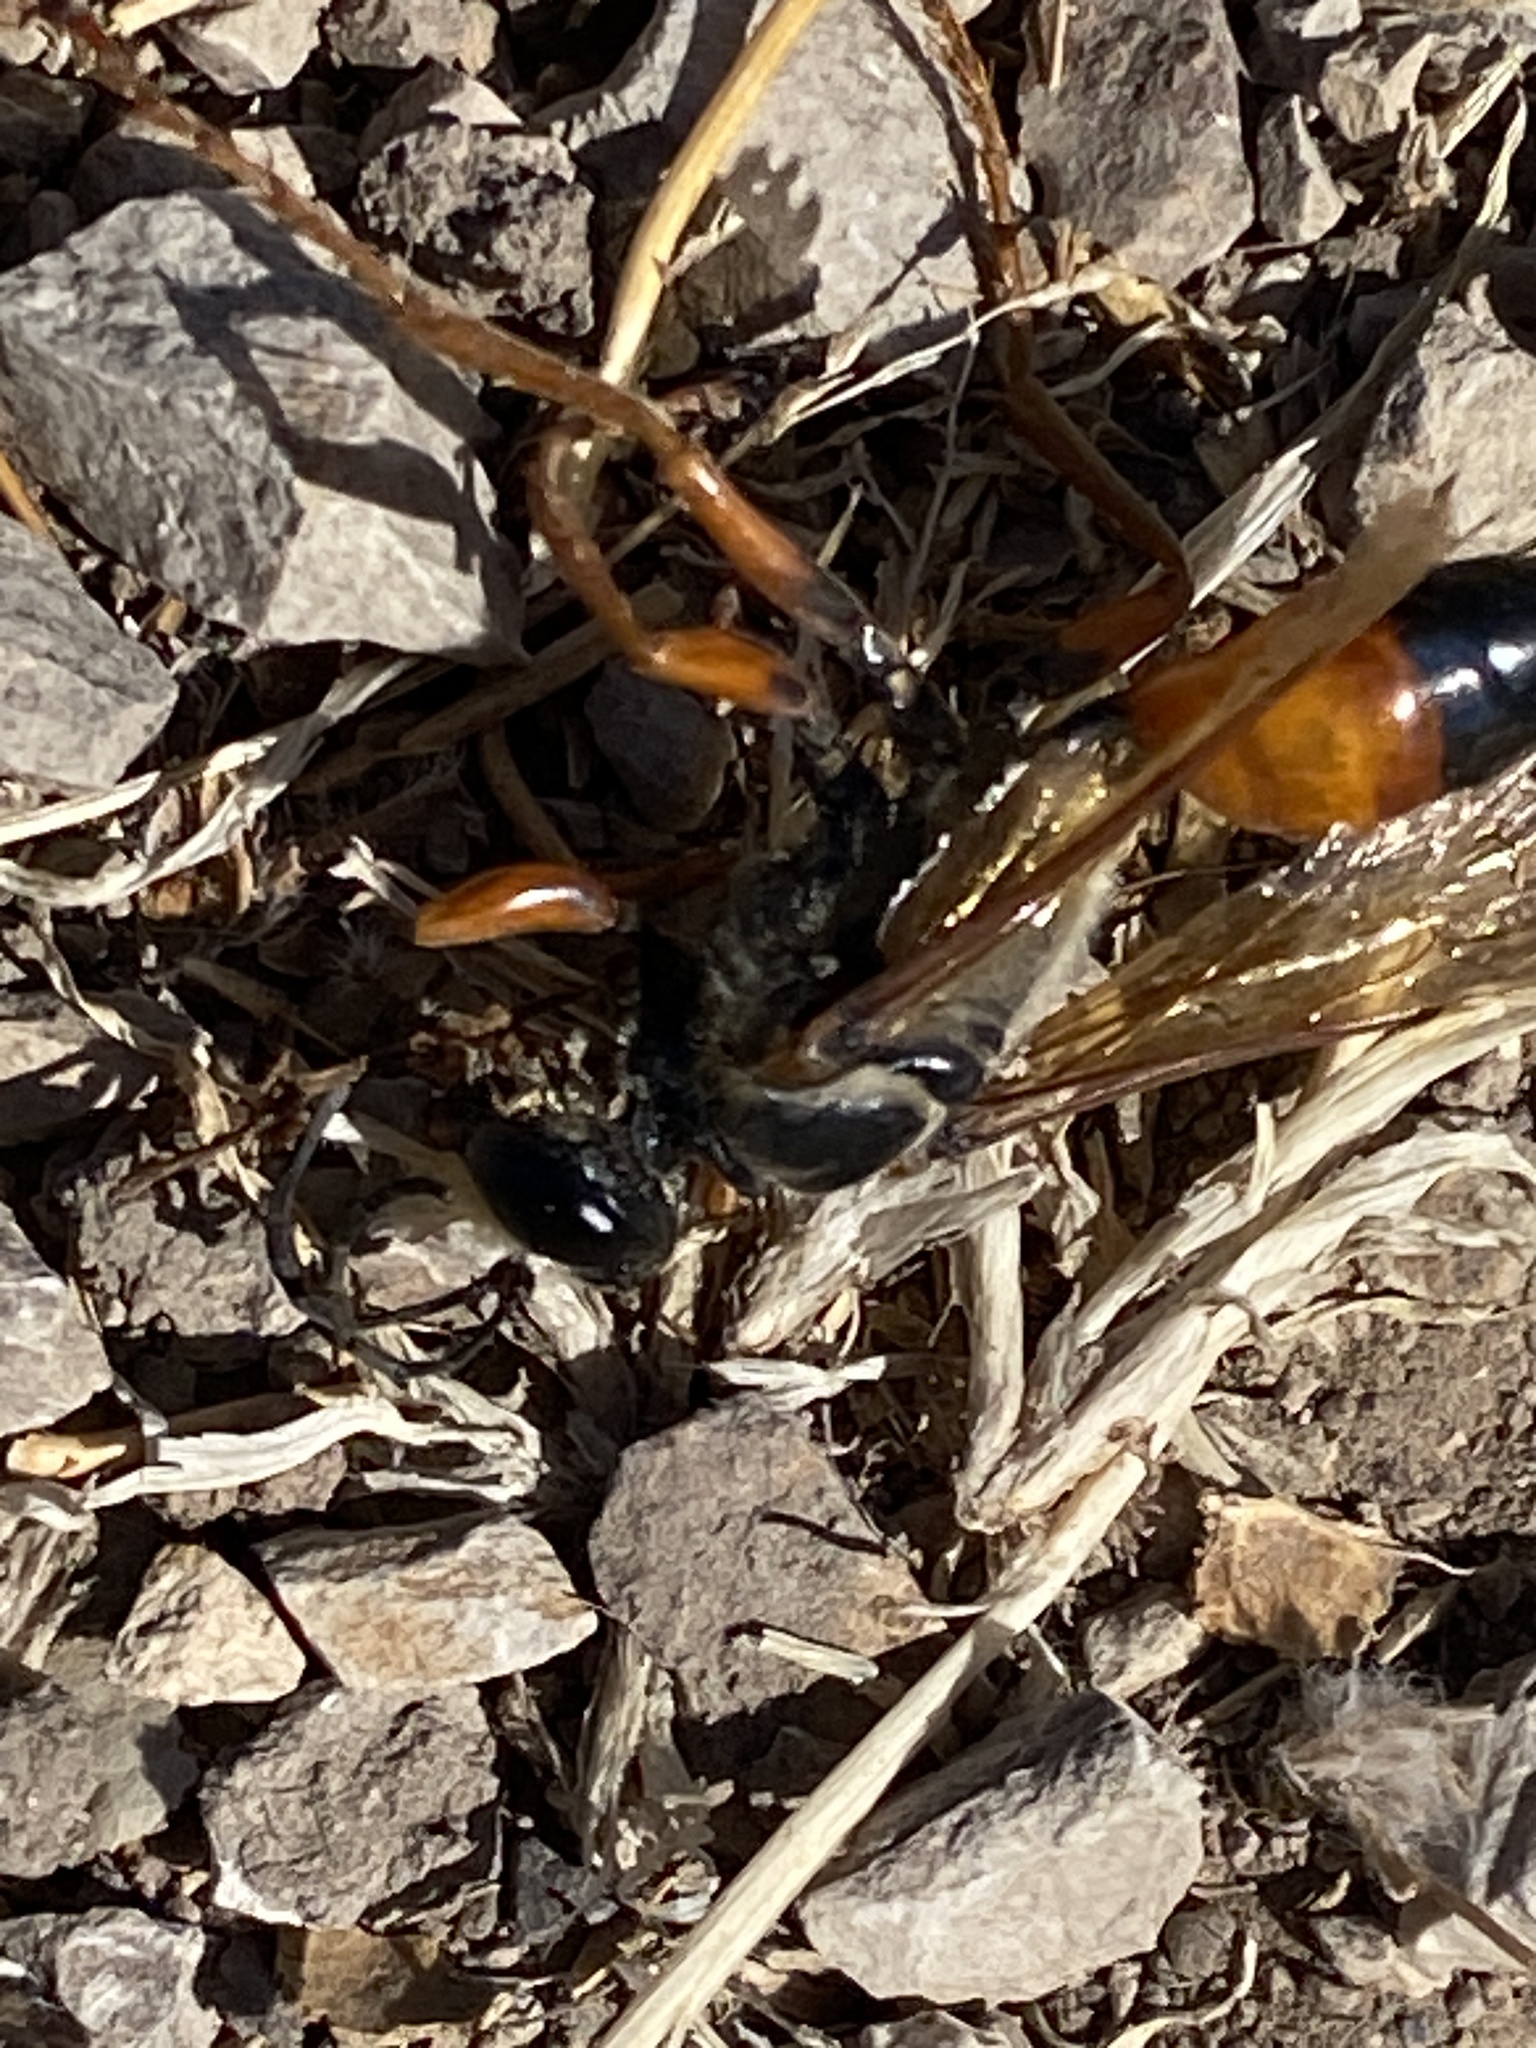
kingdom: Animalia
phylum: Arthropoda
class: Insecta
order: Hymenoptera
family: Sphecidae
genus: Sphex
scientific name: Sphex ichneumoneus
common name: Great golden digger wasp
